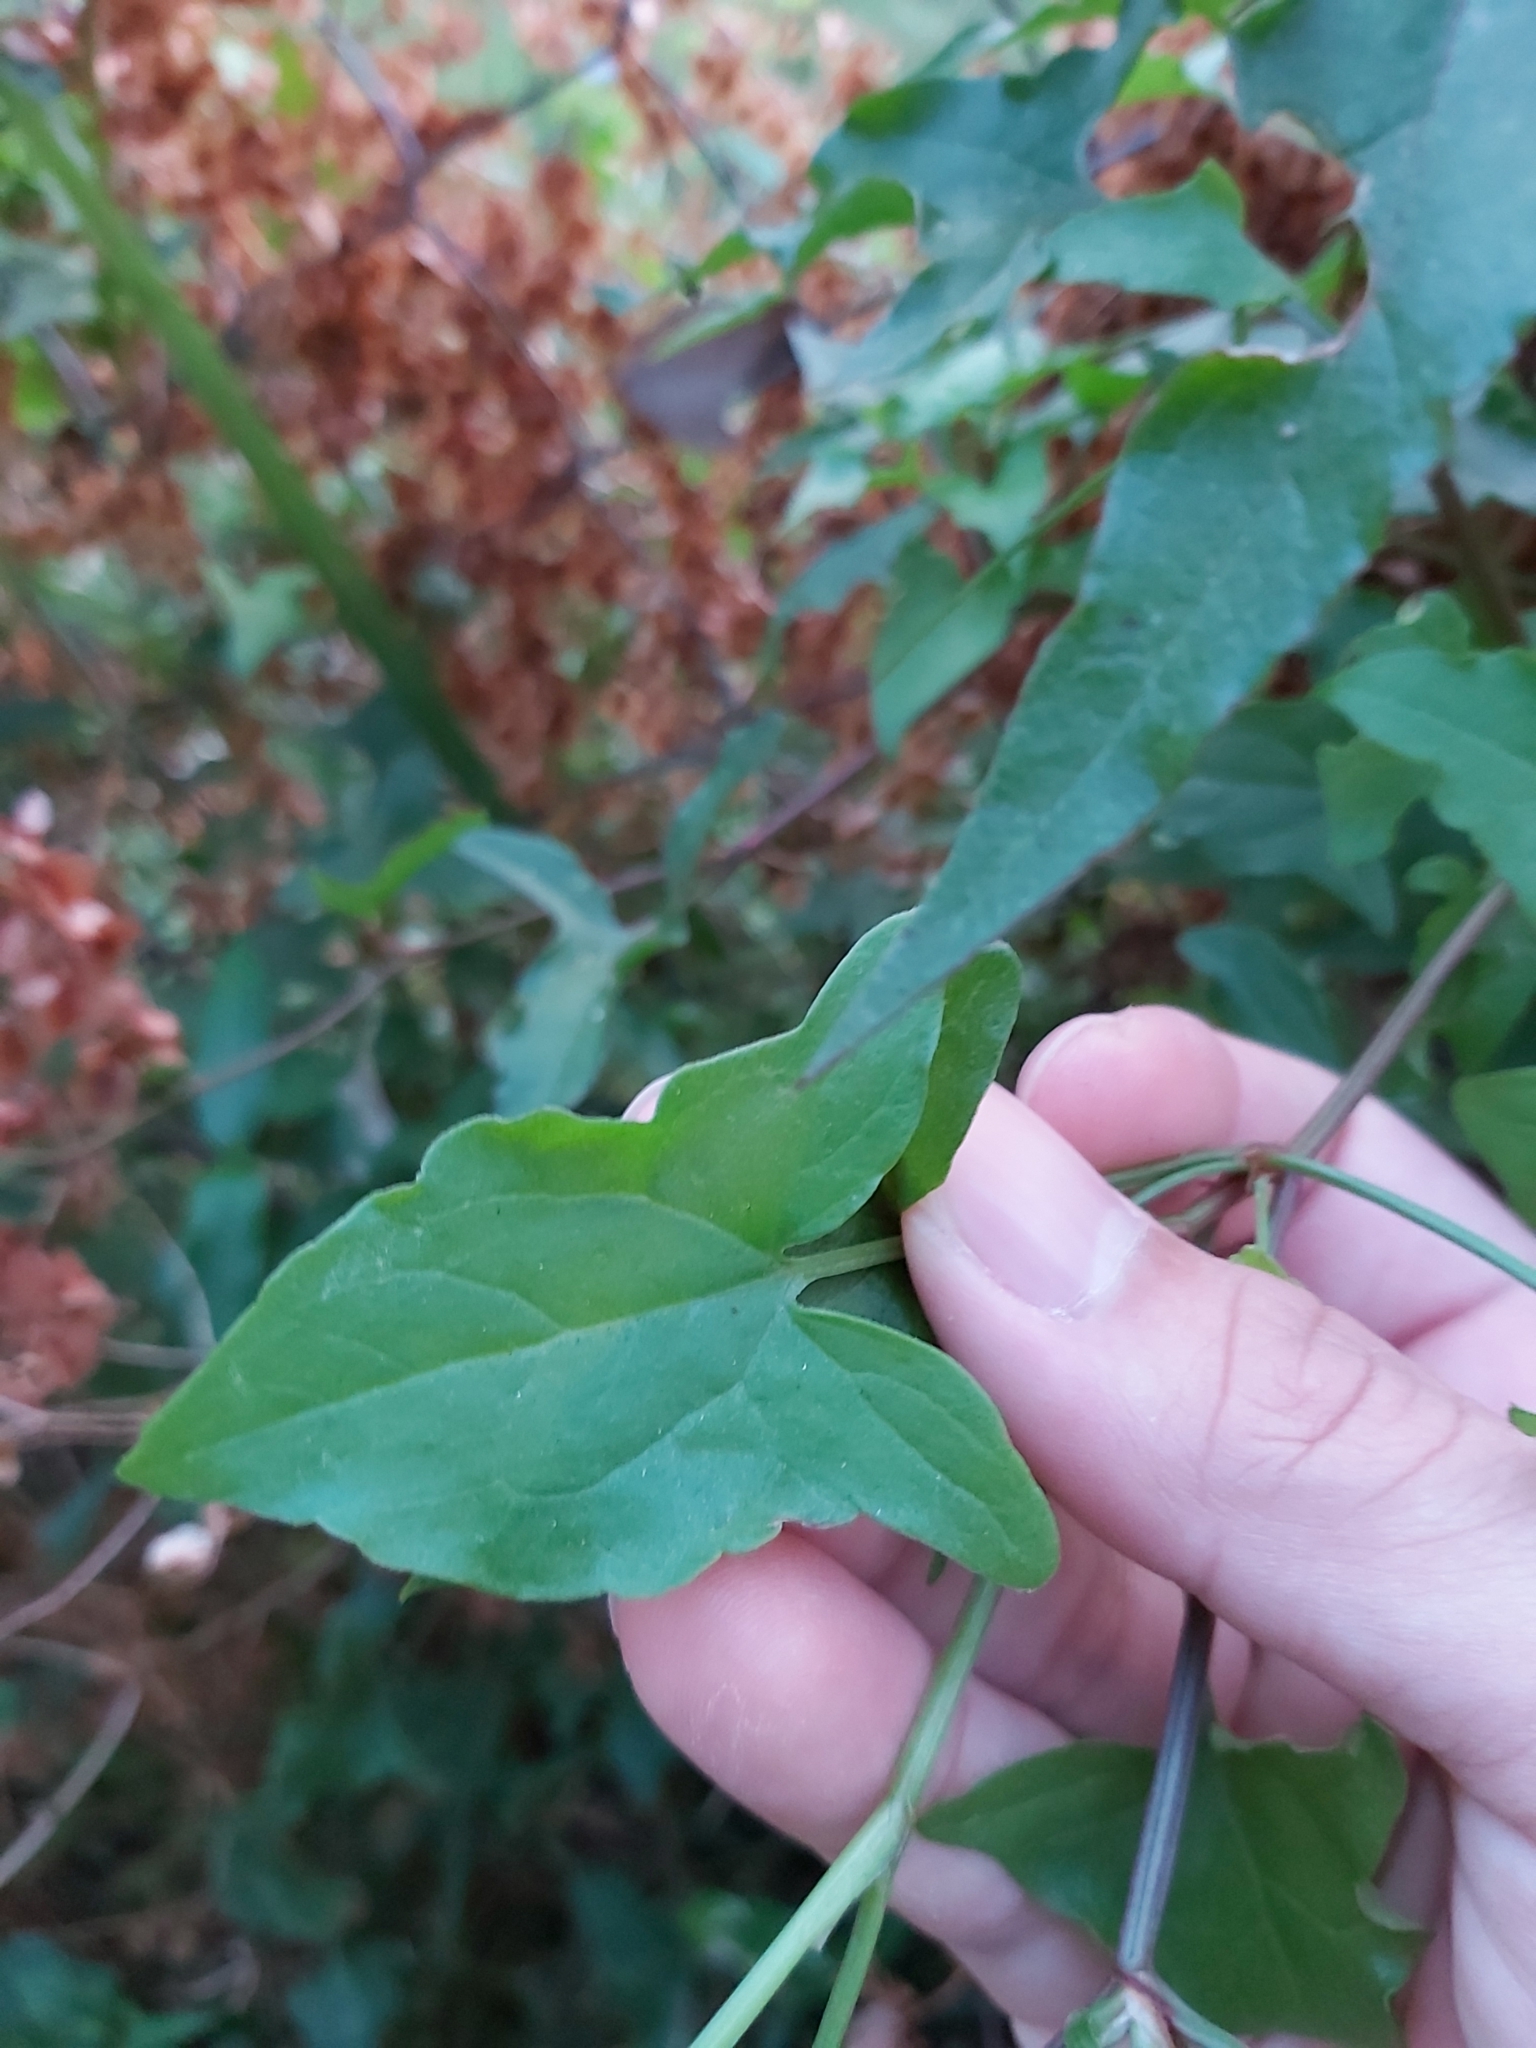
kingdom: Plantae
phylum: Tracheophyta
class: Magnoliopsida
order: Caryophyllales
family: Polygonaceae
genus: Rumex
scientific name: Rumex sagittatus
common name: Climbing dock
